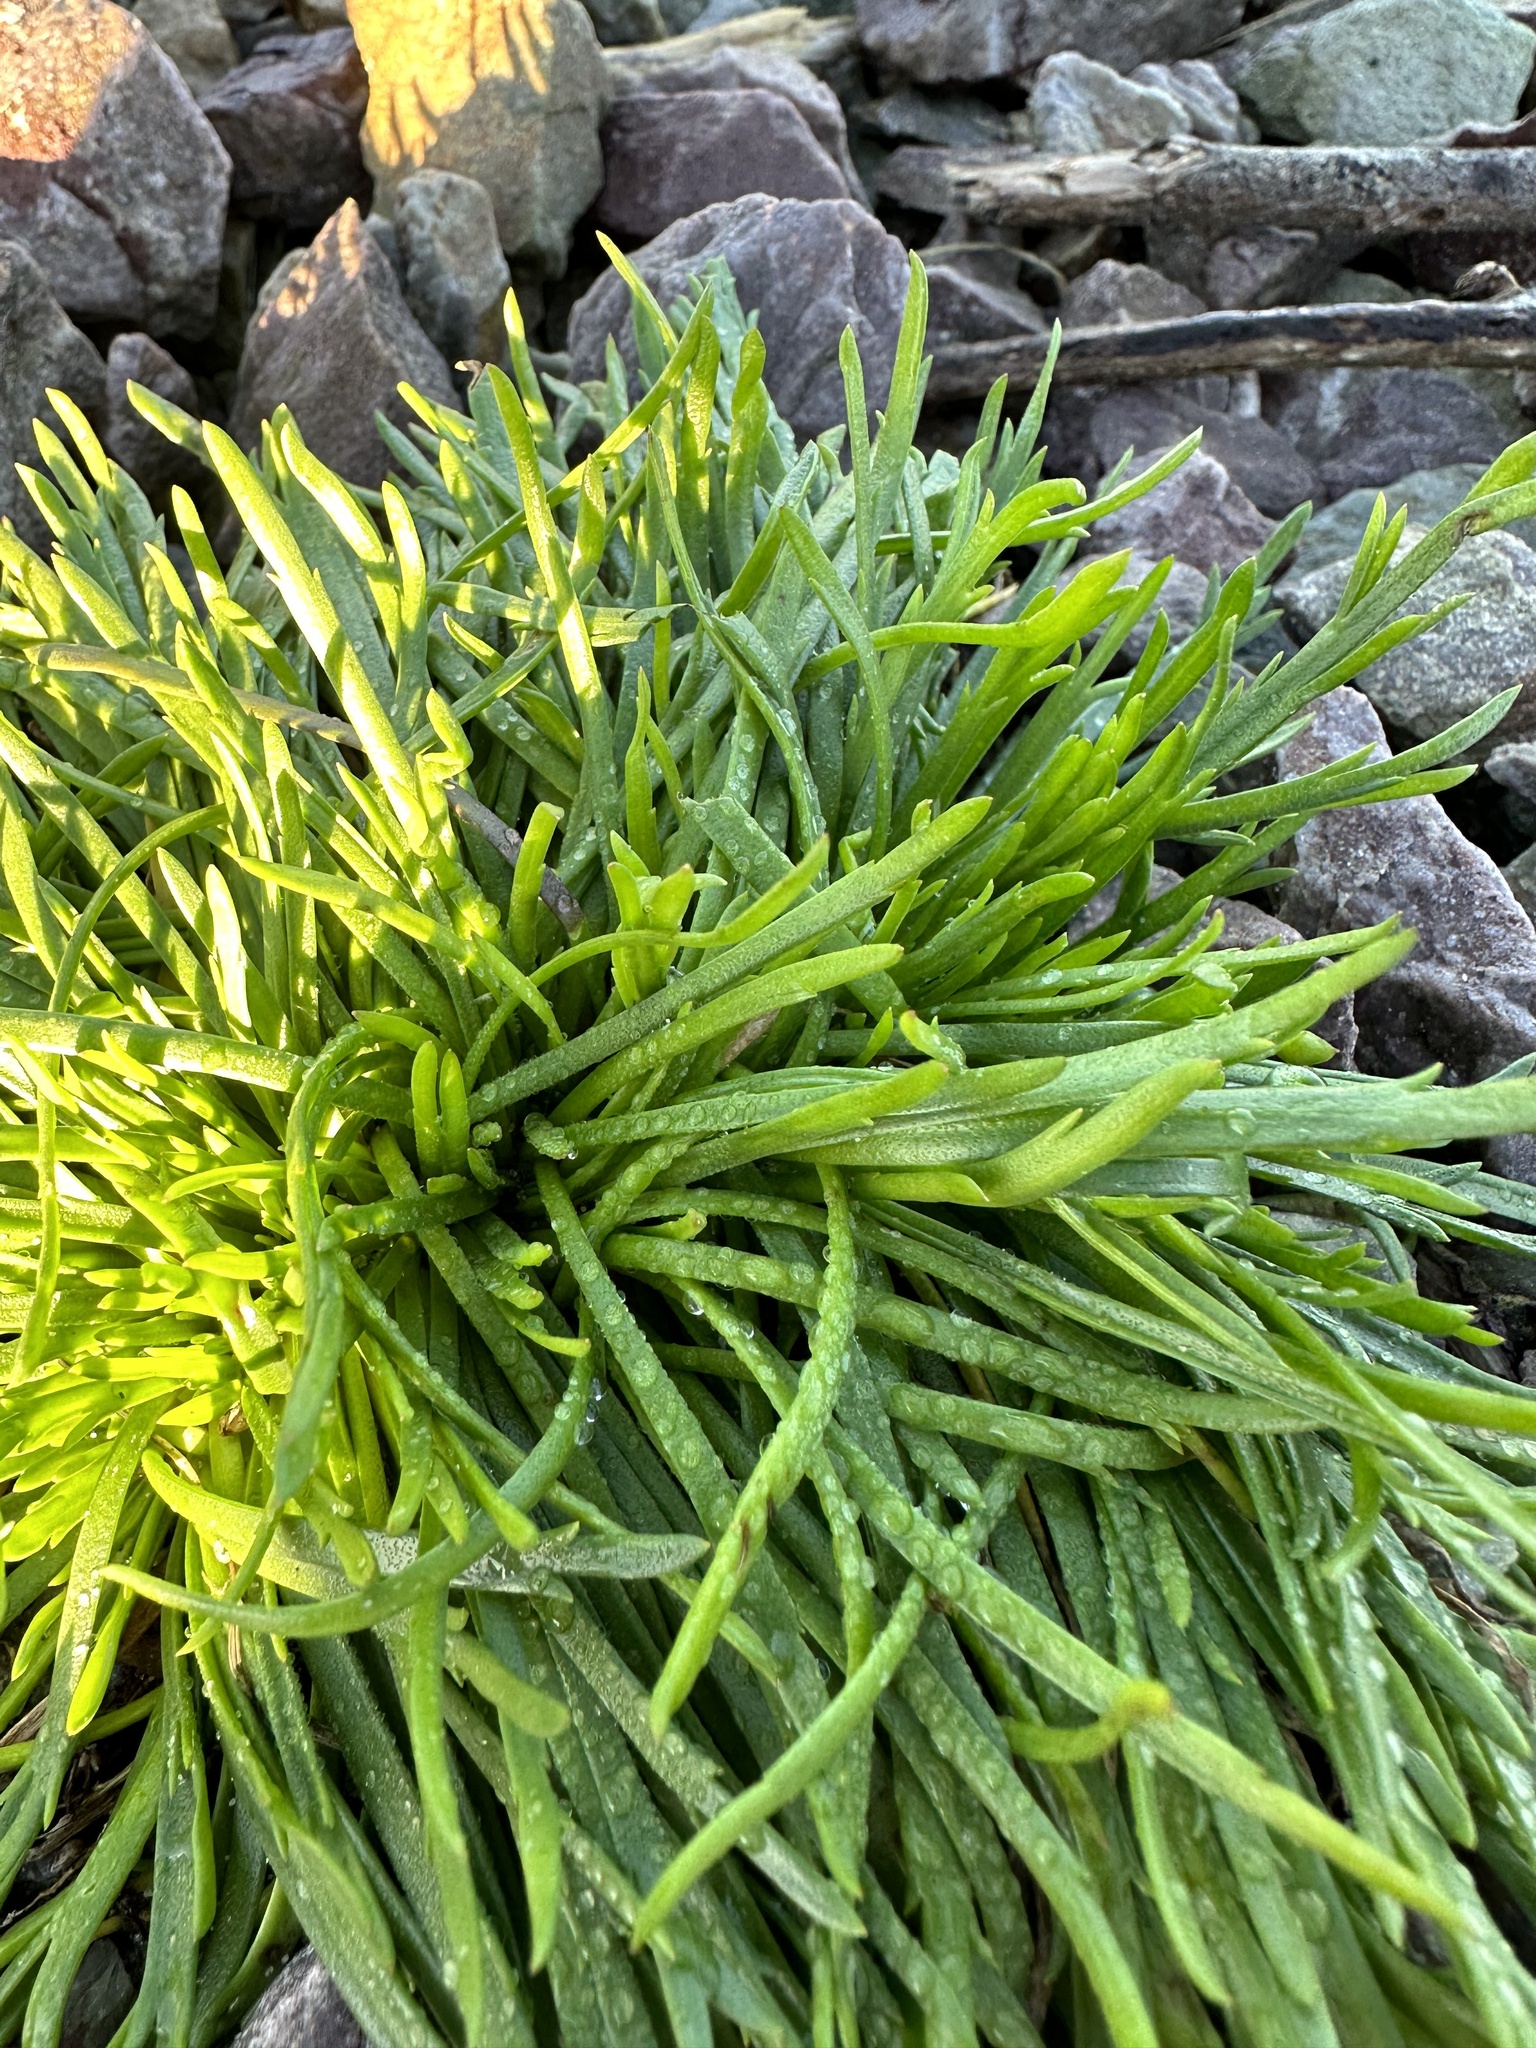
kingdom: Plantae
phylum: Tracheophyta
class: Magnoliopsida
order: Lamiales
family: Plantaginaceae
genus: Plantago
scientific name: Plantago coronopus
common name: Buck's-horn plantain
